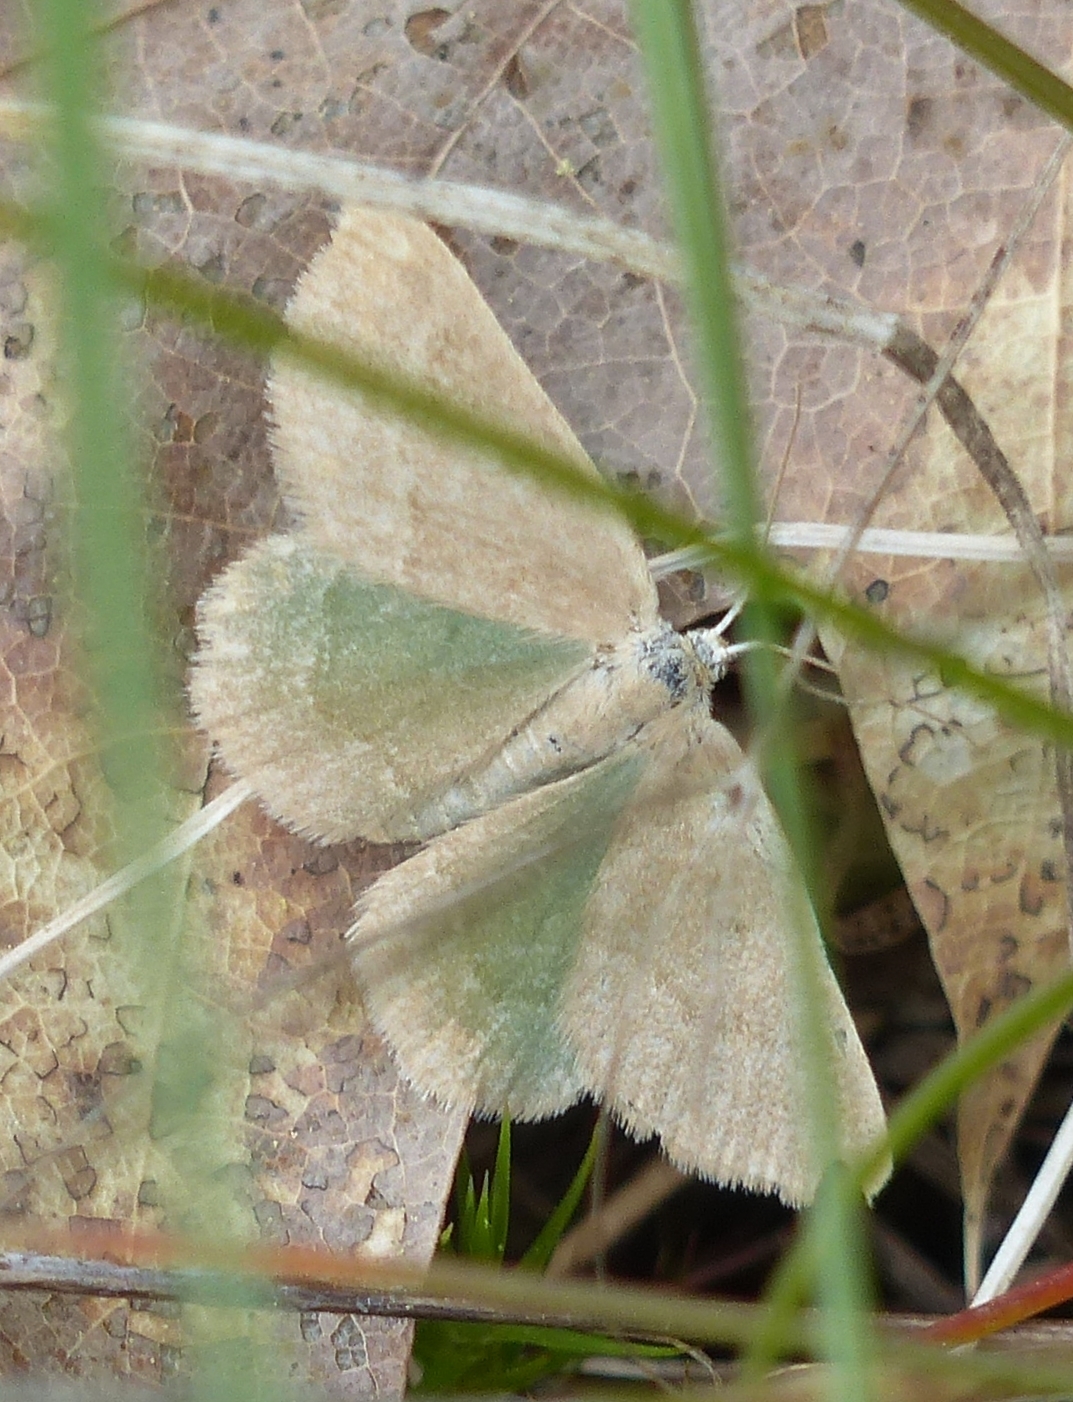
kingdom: Animalia
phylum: Arthropoda
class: Insecta
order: Lepidoptera
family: Geometridae
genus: Mesothea
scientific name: Mesothea incertata
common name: Day emerald moth
